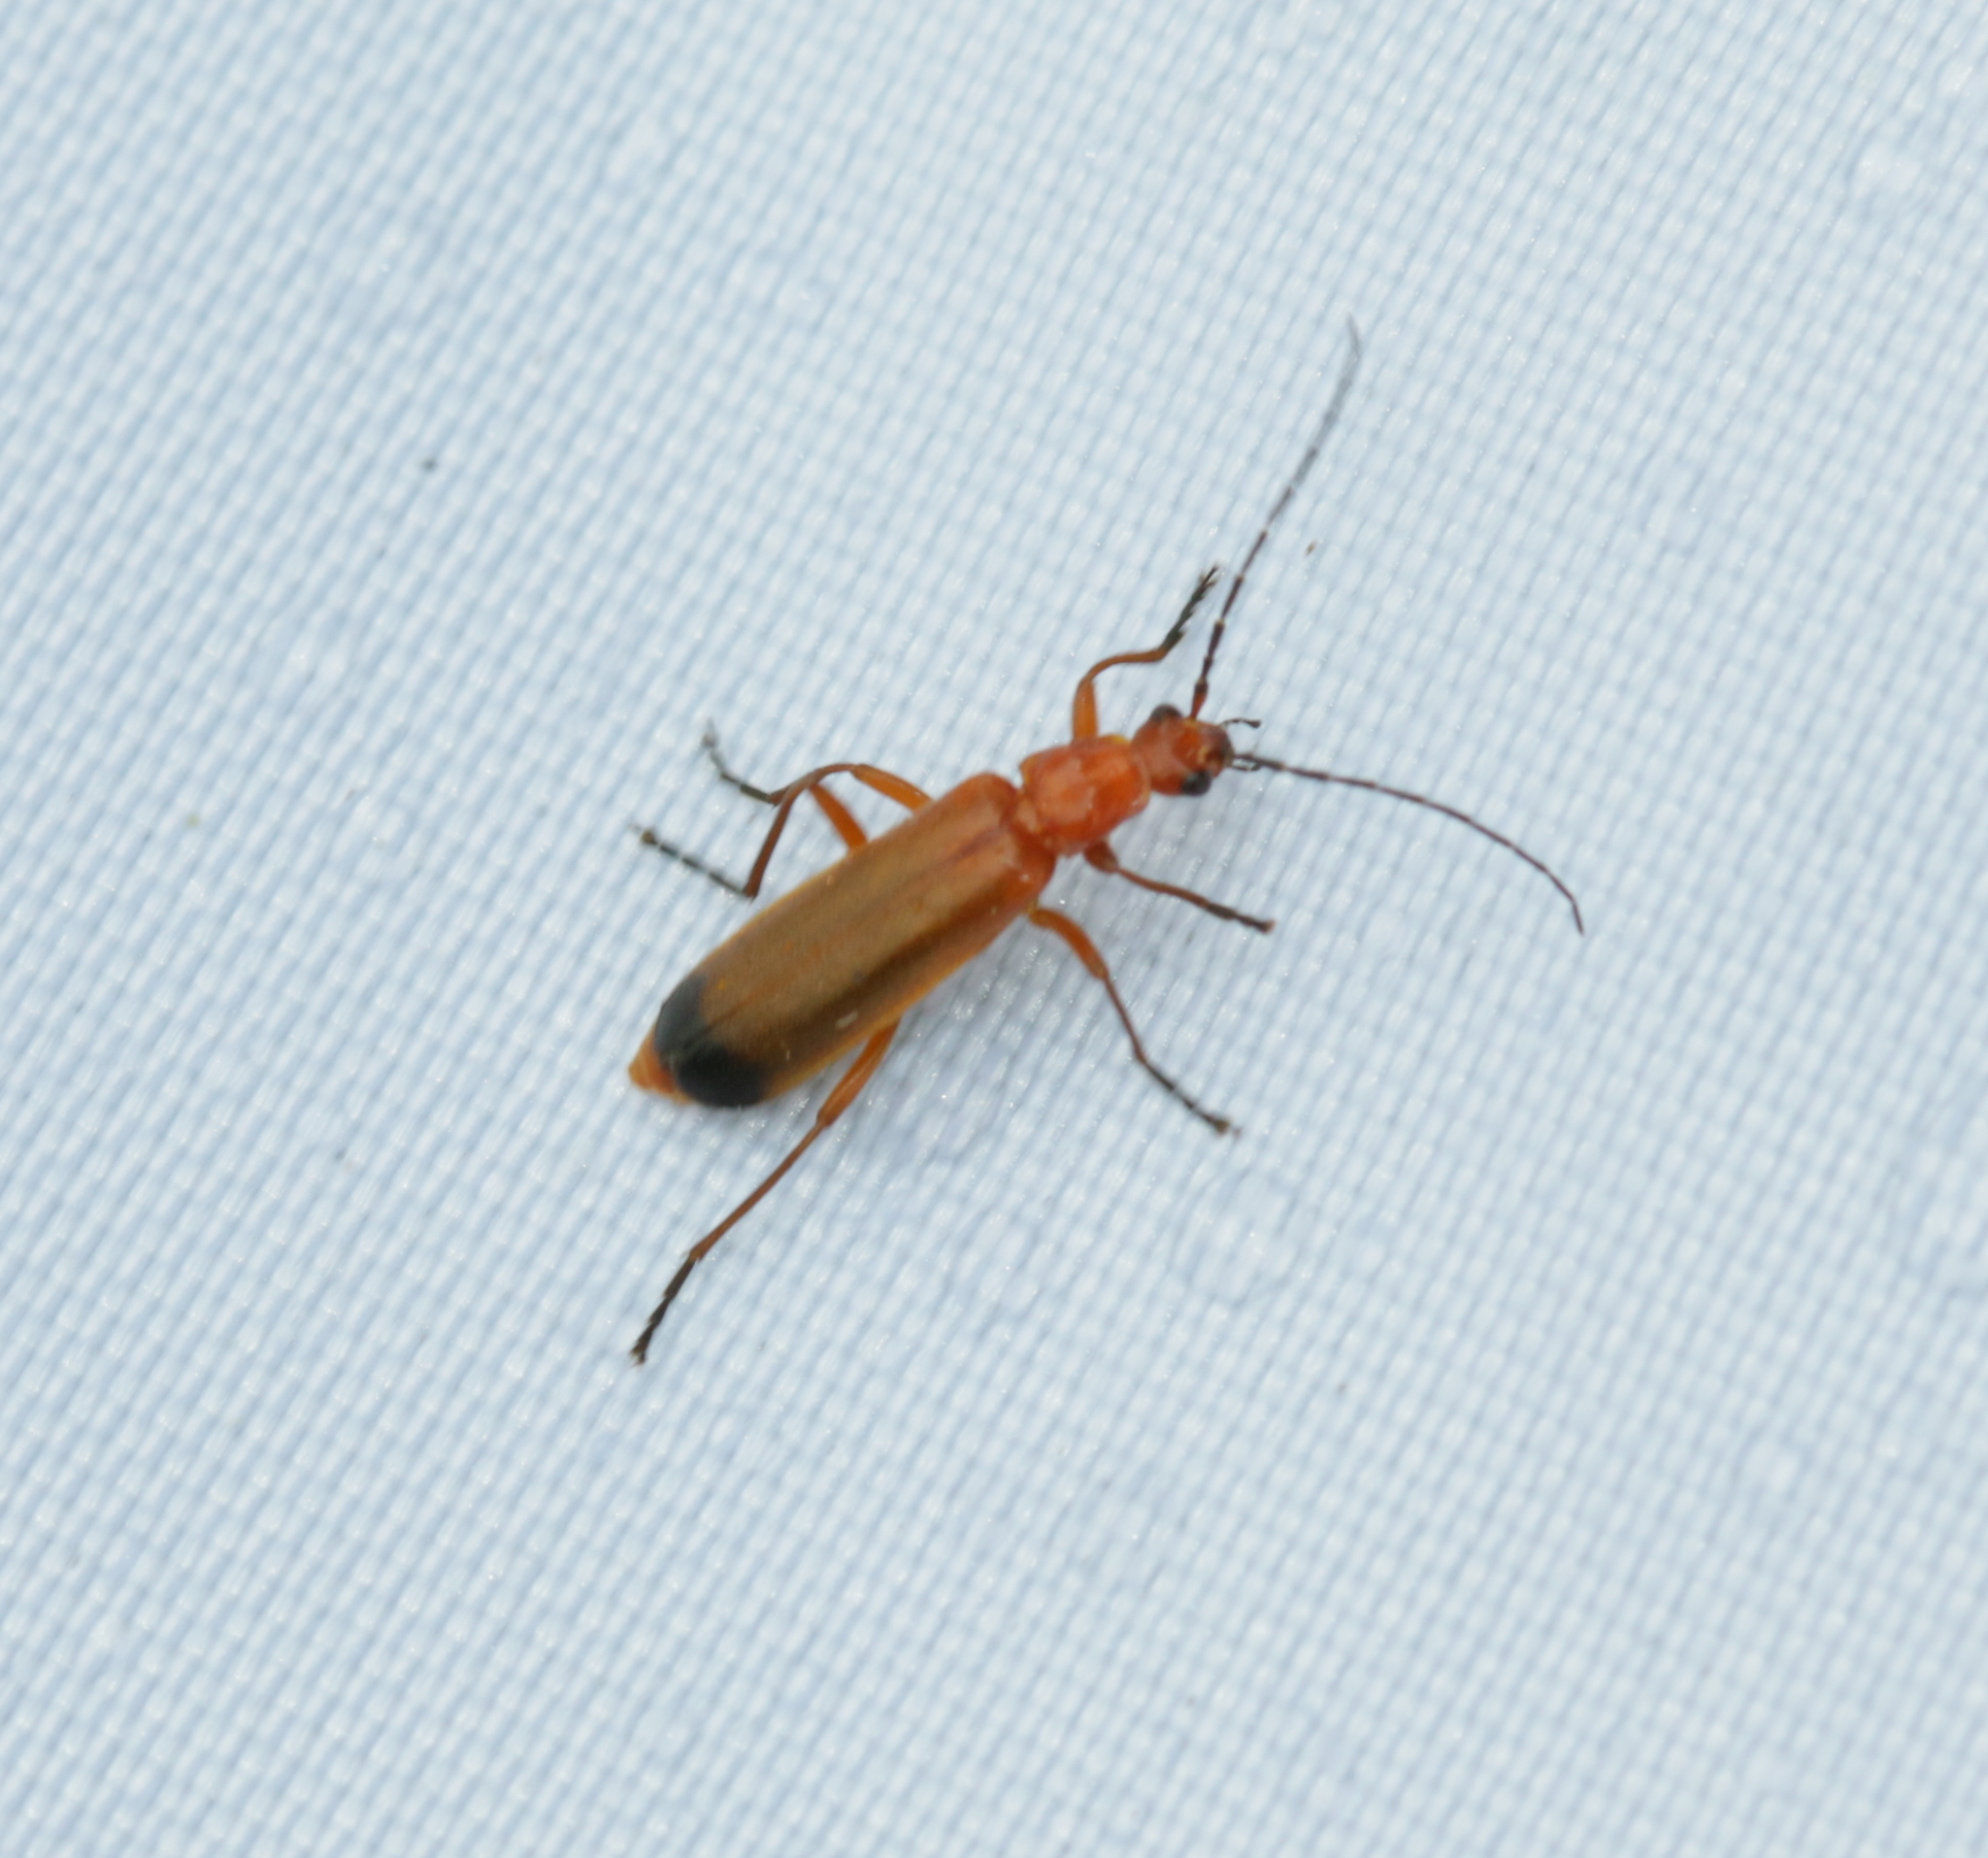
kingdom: Animalia
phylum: Arthropoda
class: Insecta
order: Coleoptera
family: Cantharidae
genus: Rhagonycha
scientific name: Rhagonycha fulva
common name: Common red soldier beetle
